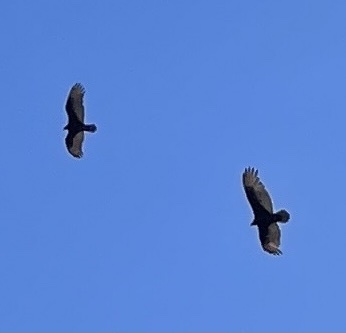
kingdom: Animalia
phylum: Chordata
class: Aves
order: Accipitriformes
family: Cathartidae
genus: Cathartes
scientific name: Cathartes aura
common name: Turkey vulture
